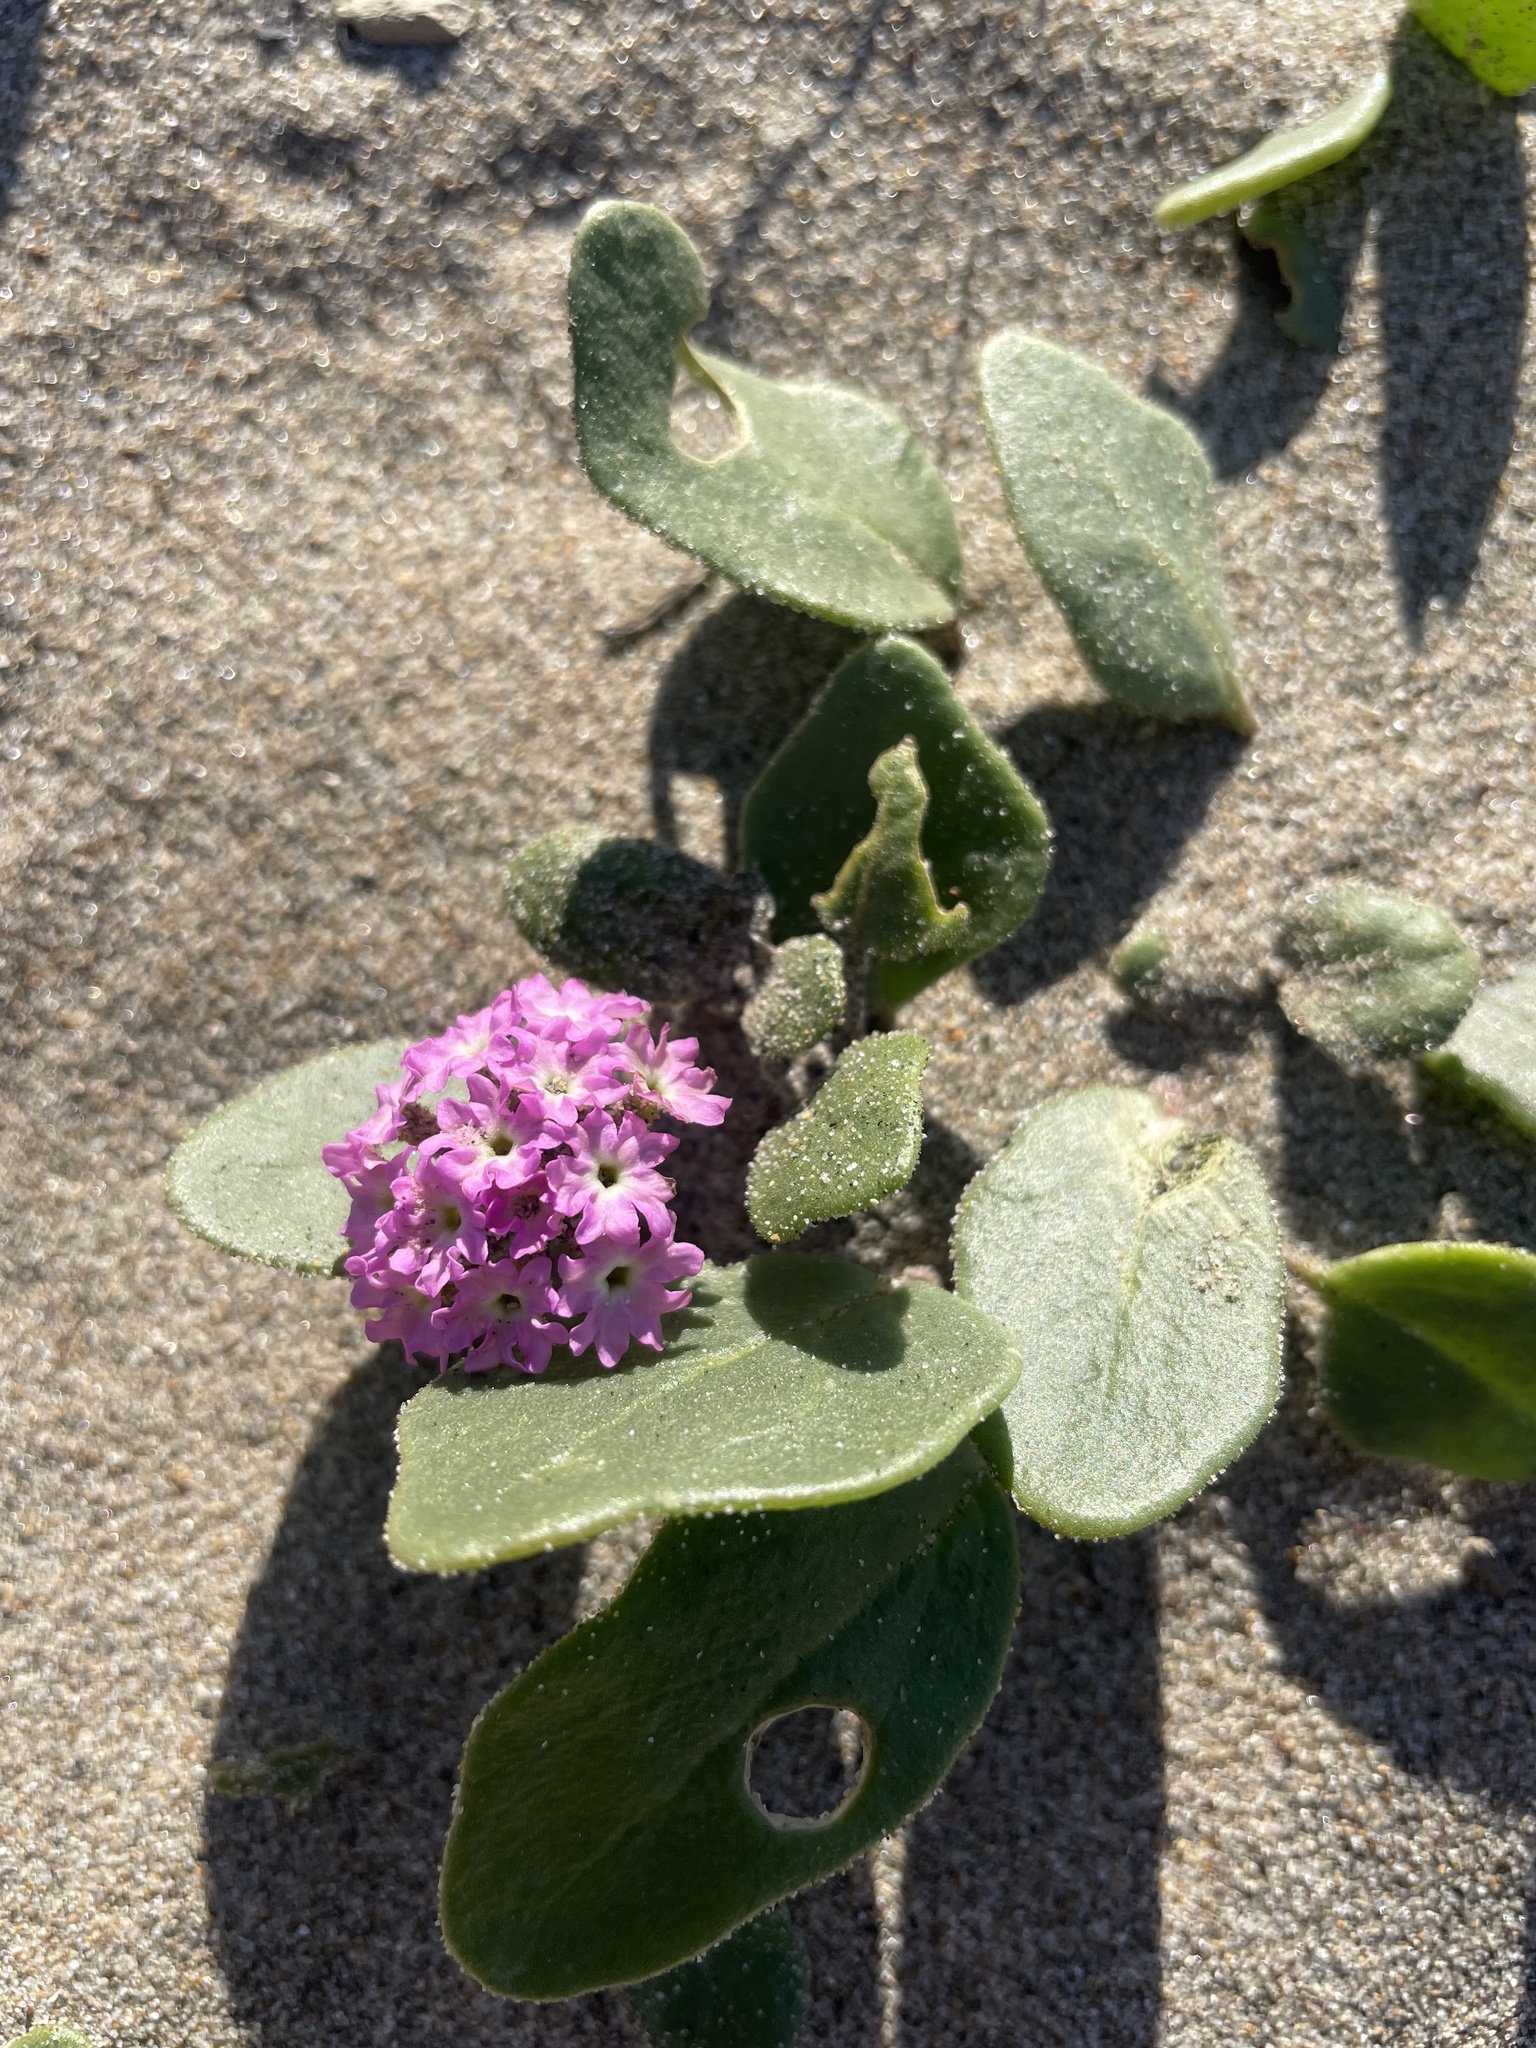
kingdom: Plantae
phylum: Tracheophyta
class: Magnoliopsida
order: Caryophyllales
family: Nyctaginaceae
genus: Abronia
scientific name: Abronia
